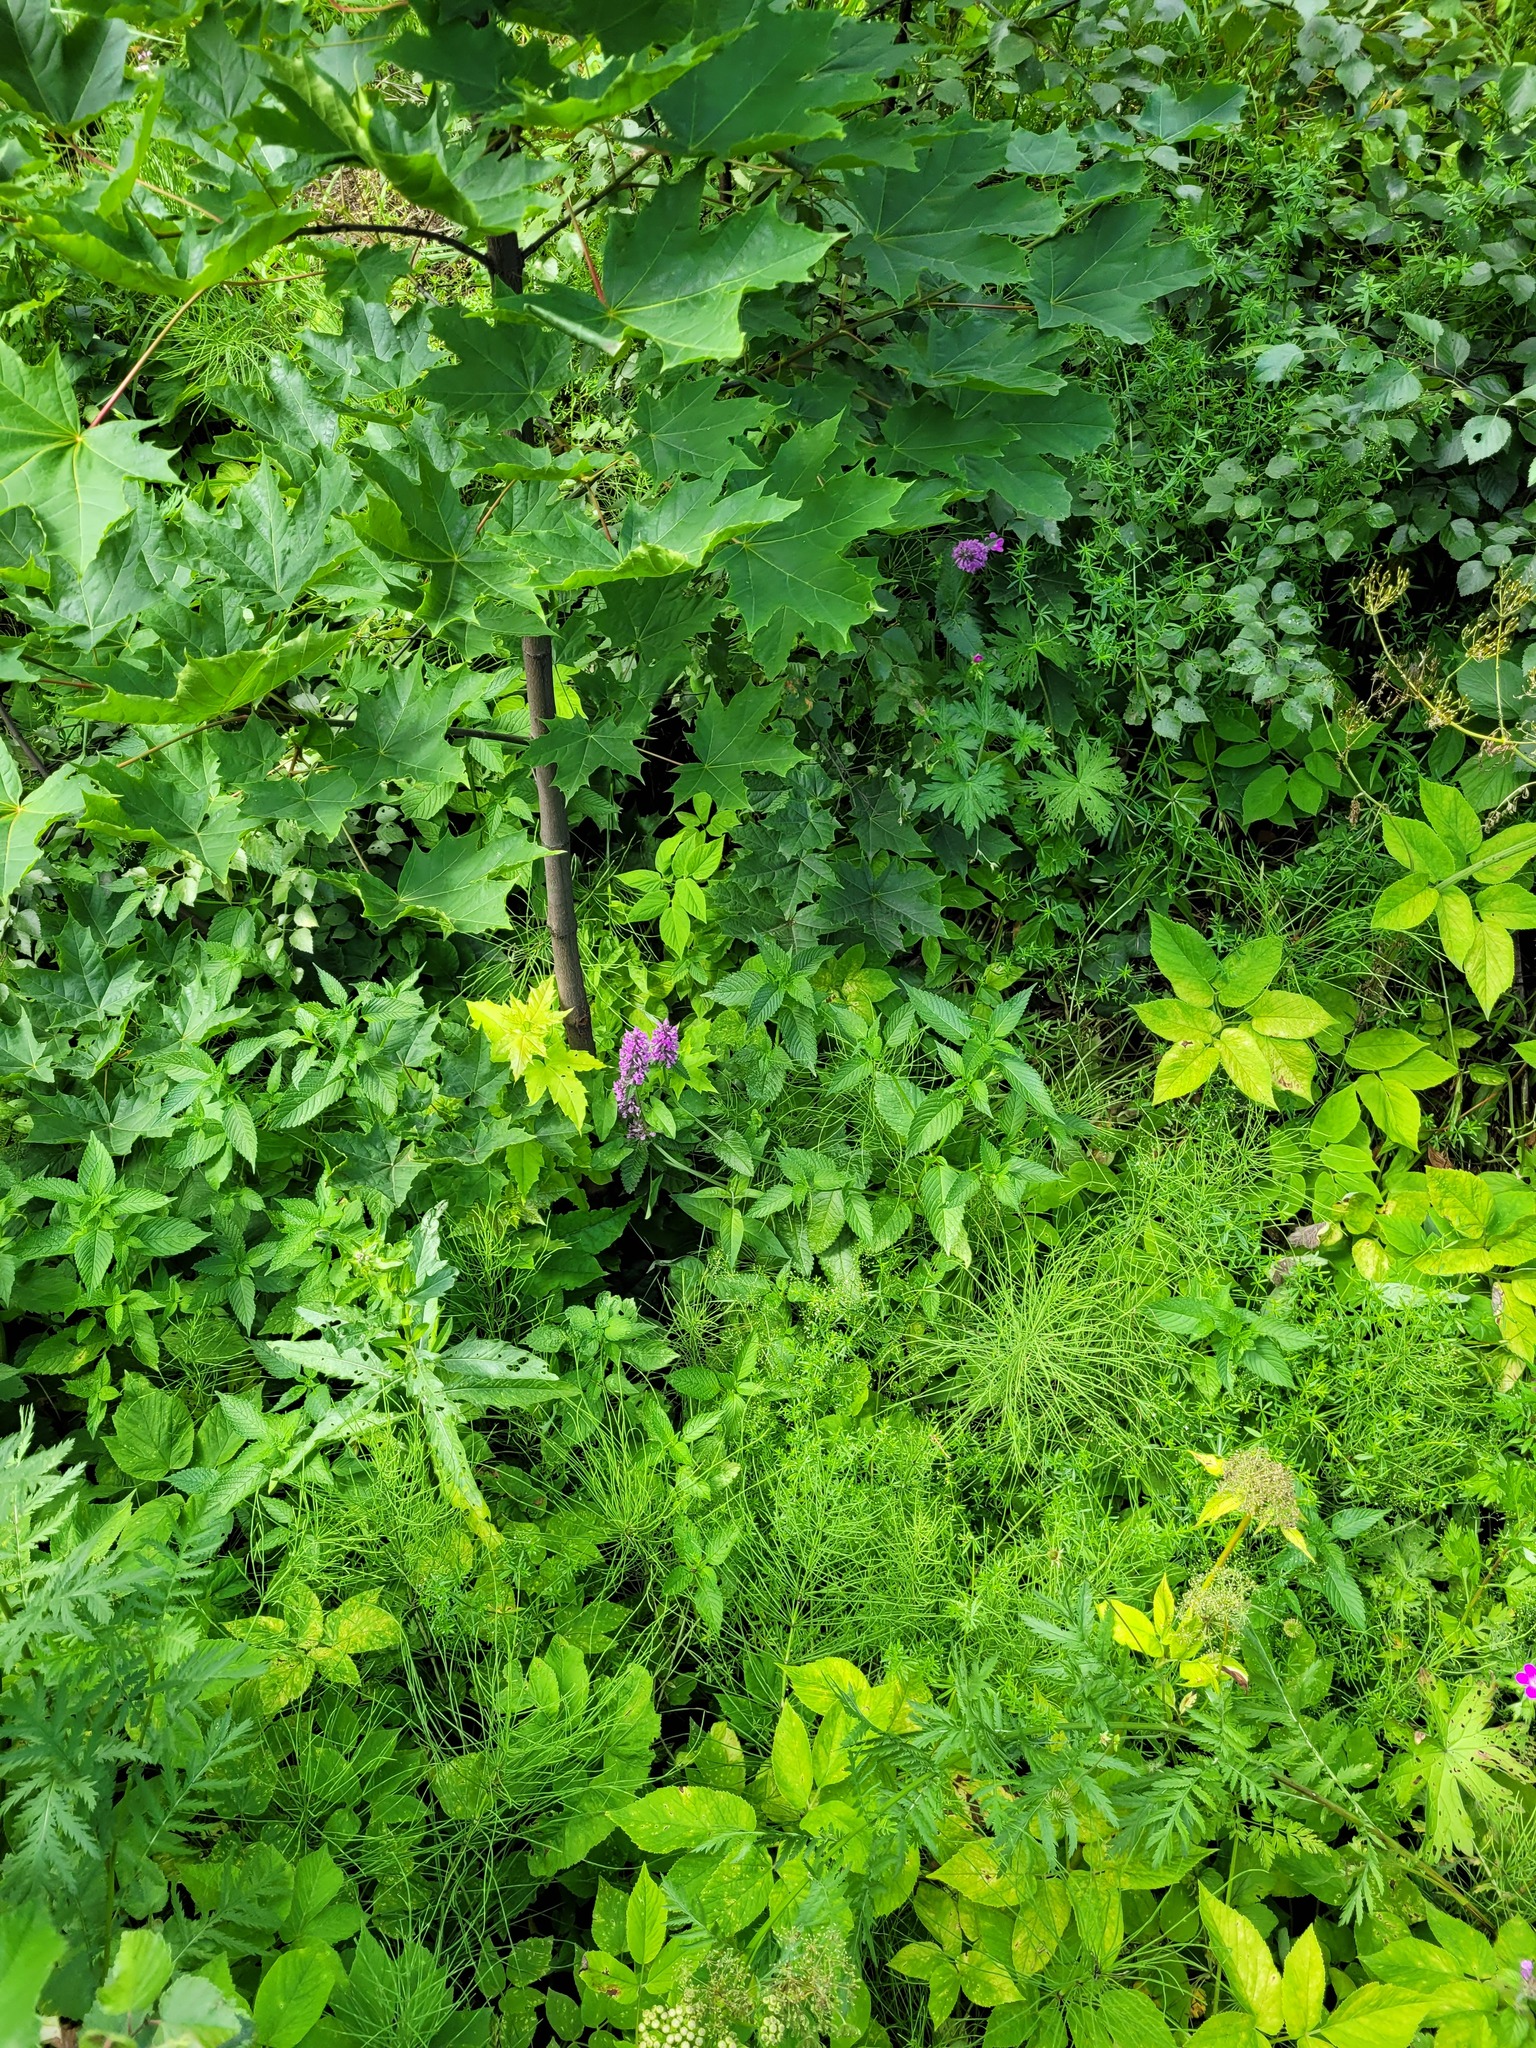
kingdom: Plantae
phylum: Tracheophyta
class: Magnoliopsida
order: Lamiales
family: Lamiaceae
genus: Betonica
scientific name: Betonica officinalis
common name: Bishop's-wort
